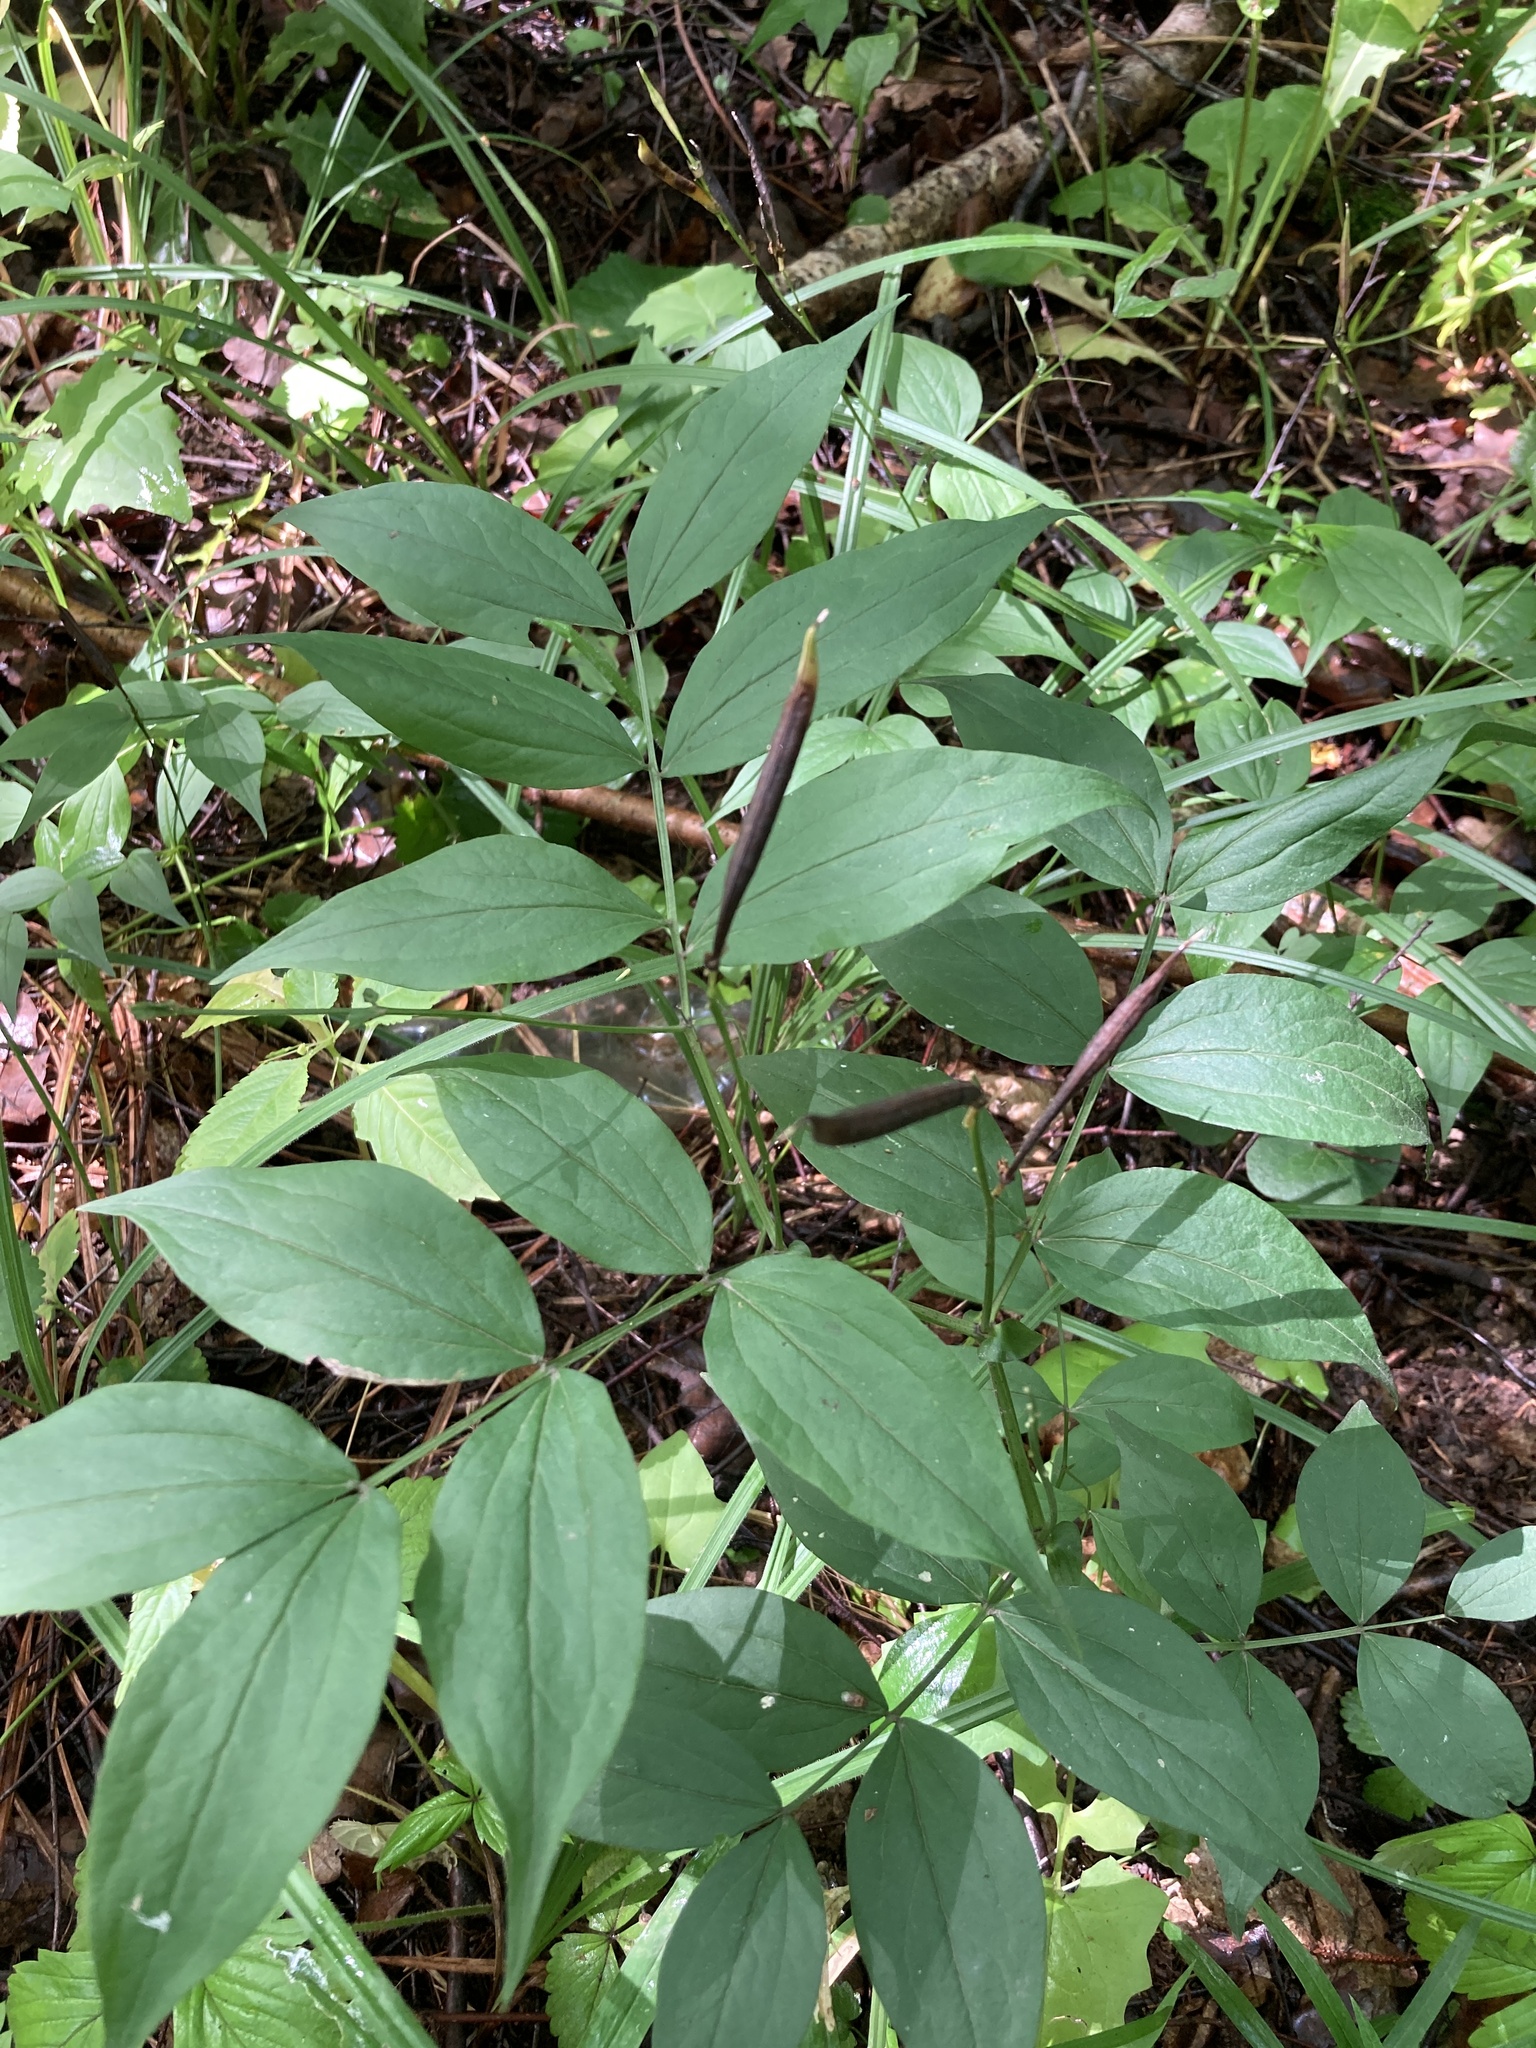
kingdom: Plantae
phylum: Tracheophyta
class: Magnoliopsida
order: Fabales
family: Fabaceae
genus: Lathyrus
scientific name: Lathyrus vernus
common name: Spring pea
